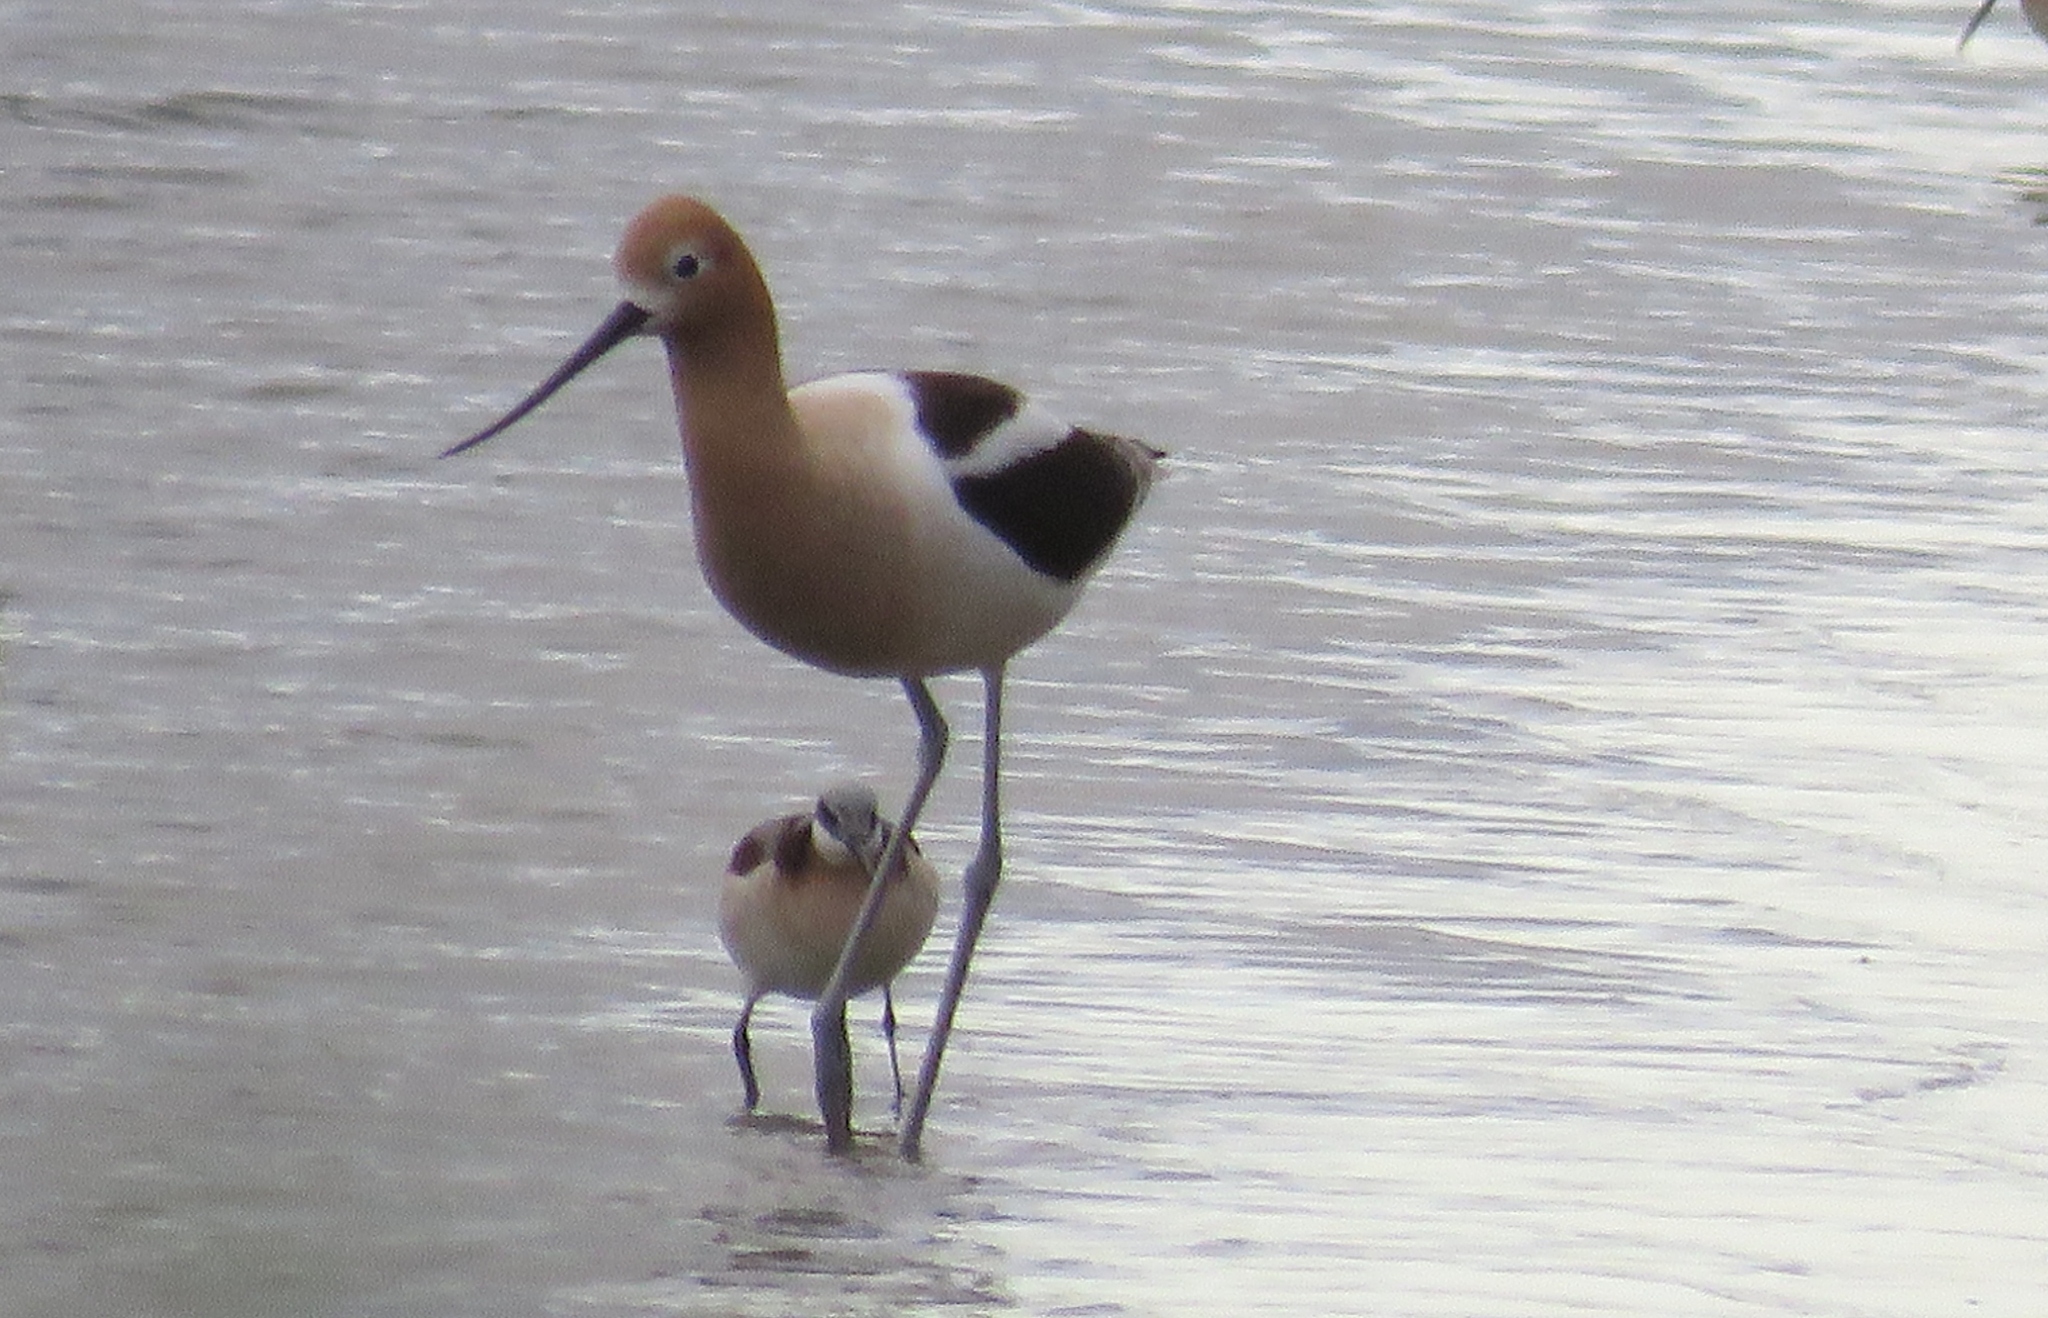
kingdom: Animalia
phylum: Chordata
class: Aves
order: Charadriiformes
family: Recurvirostridae
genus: Recurvirostra
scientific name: Recurvirostra americana
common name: American avocet
